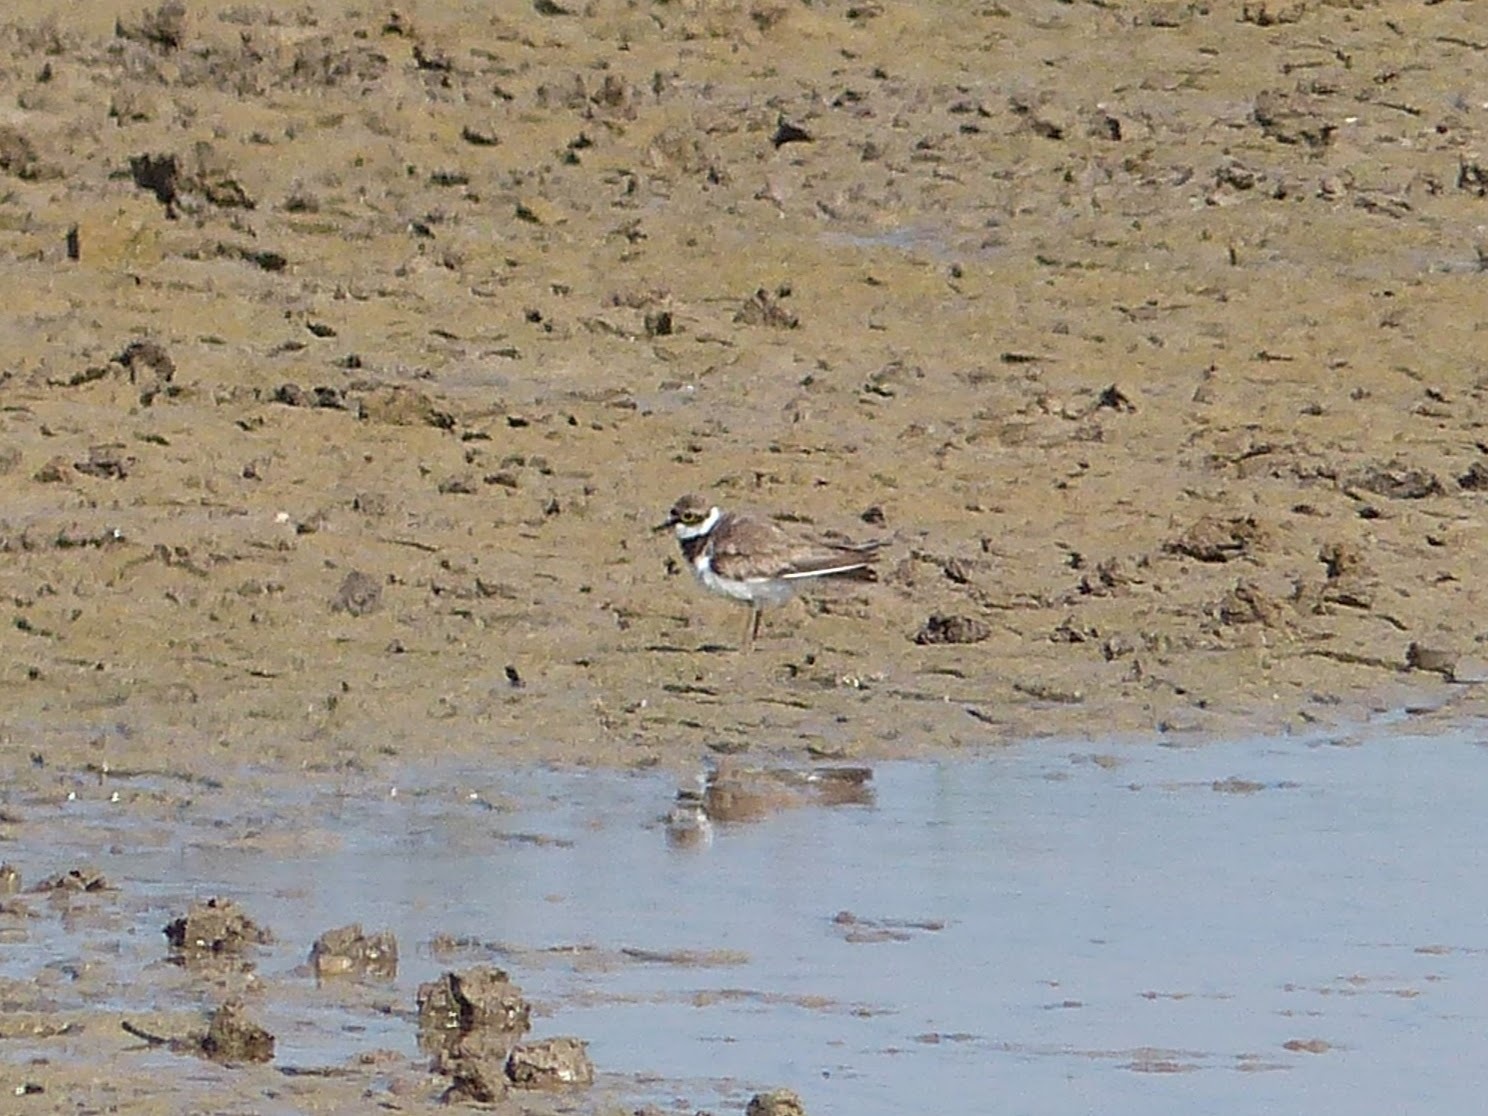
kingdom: Animalia
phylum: Chordata
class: Aves
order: Charadriiformes
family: Charadriidae
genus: Charadrius
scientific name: Charadrius dubius
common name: Little ringed plover
